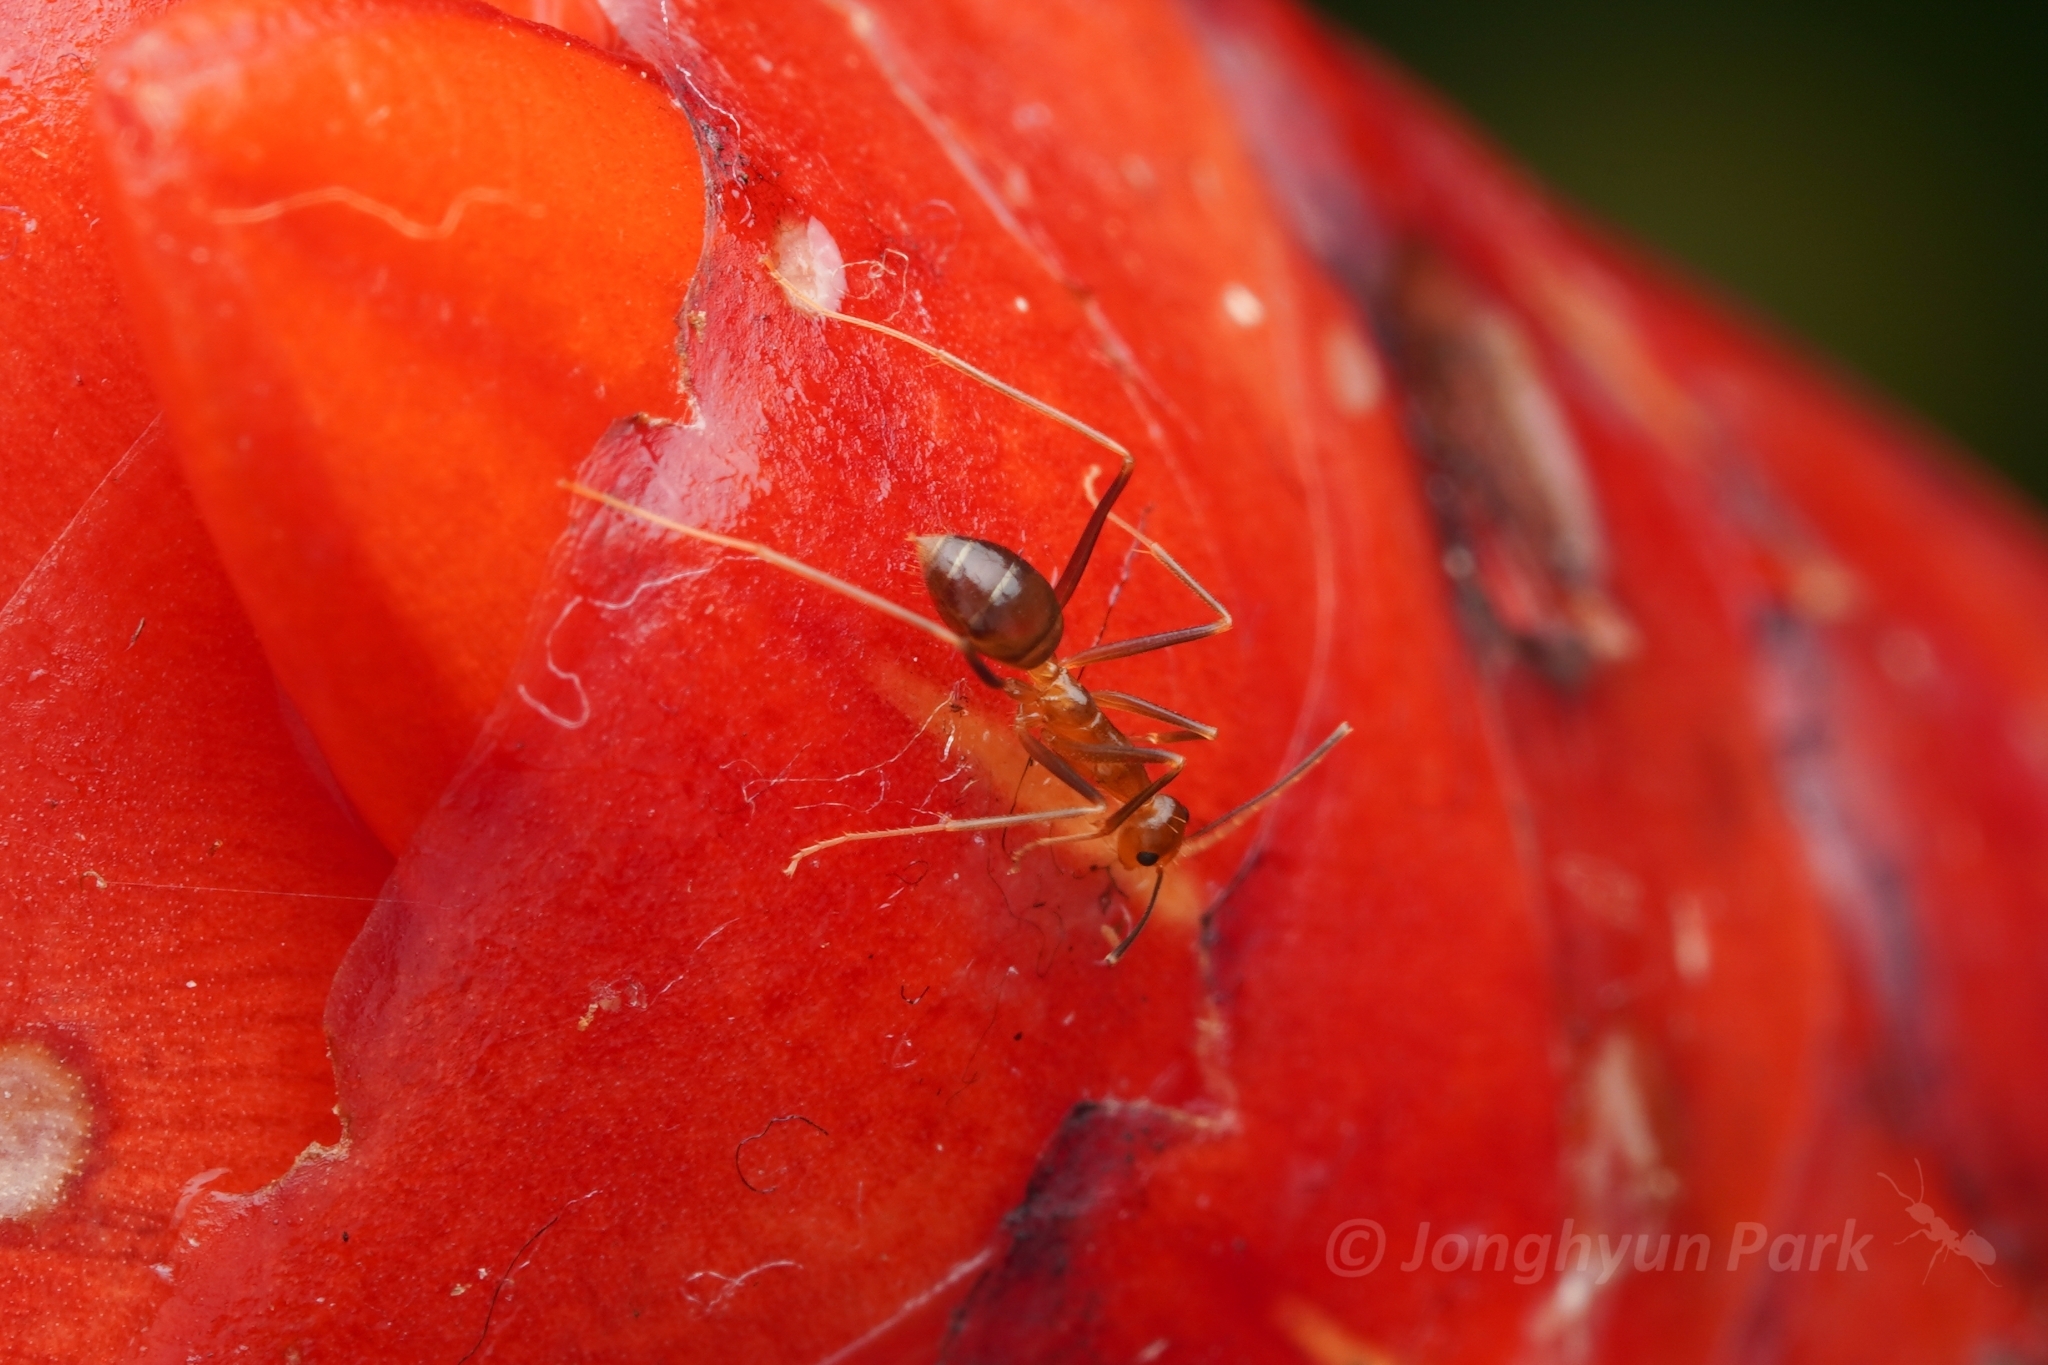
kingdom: Animalia
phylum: Arthropoda
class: Insecta
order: Hymenoptera
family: Formicidae
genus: Anoplolepis
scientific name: Anoplolepis gracilipes
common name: Ant
